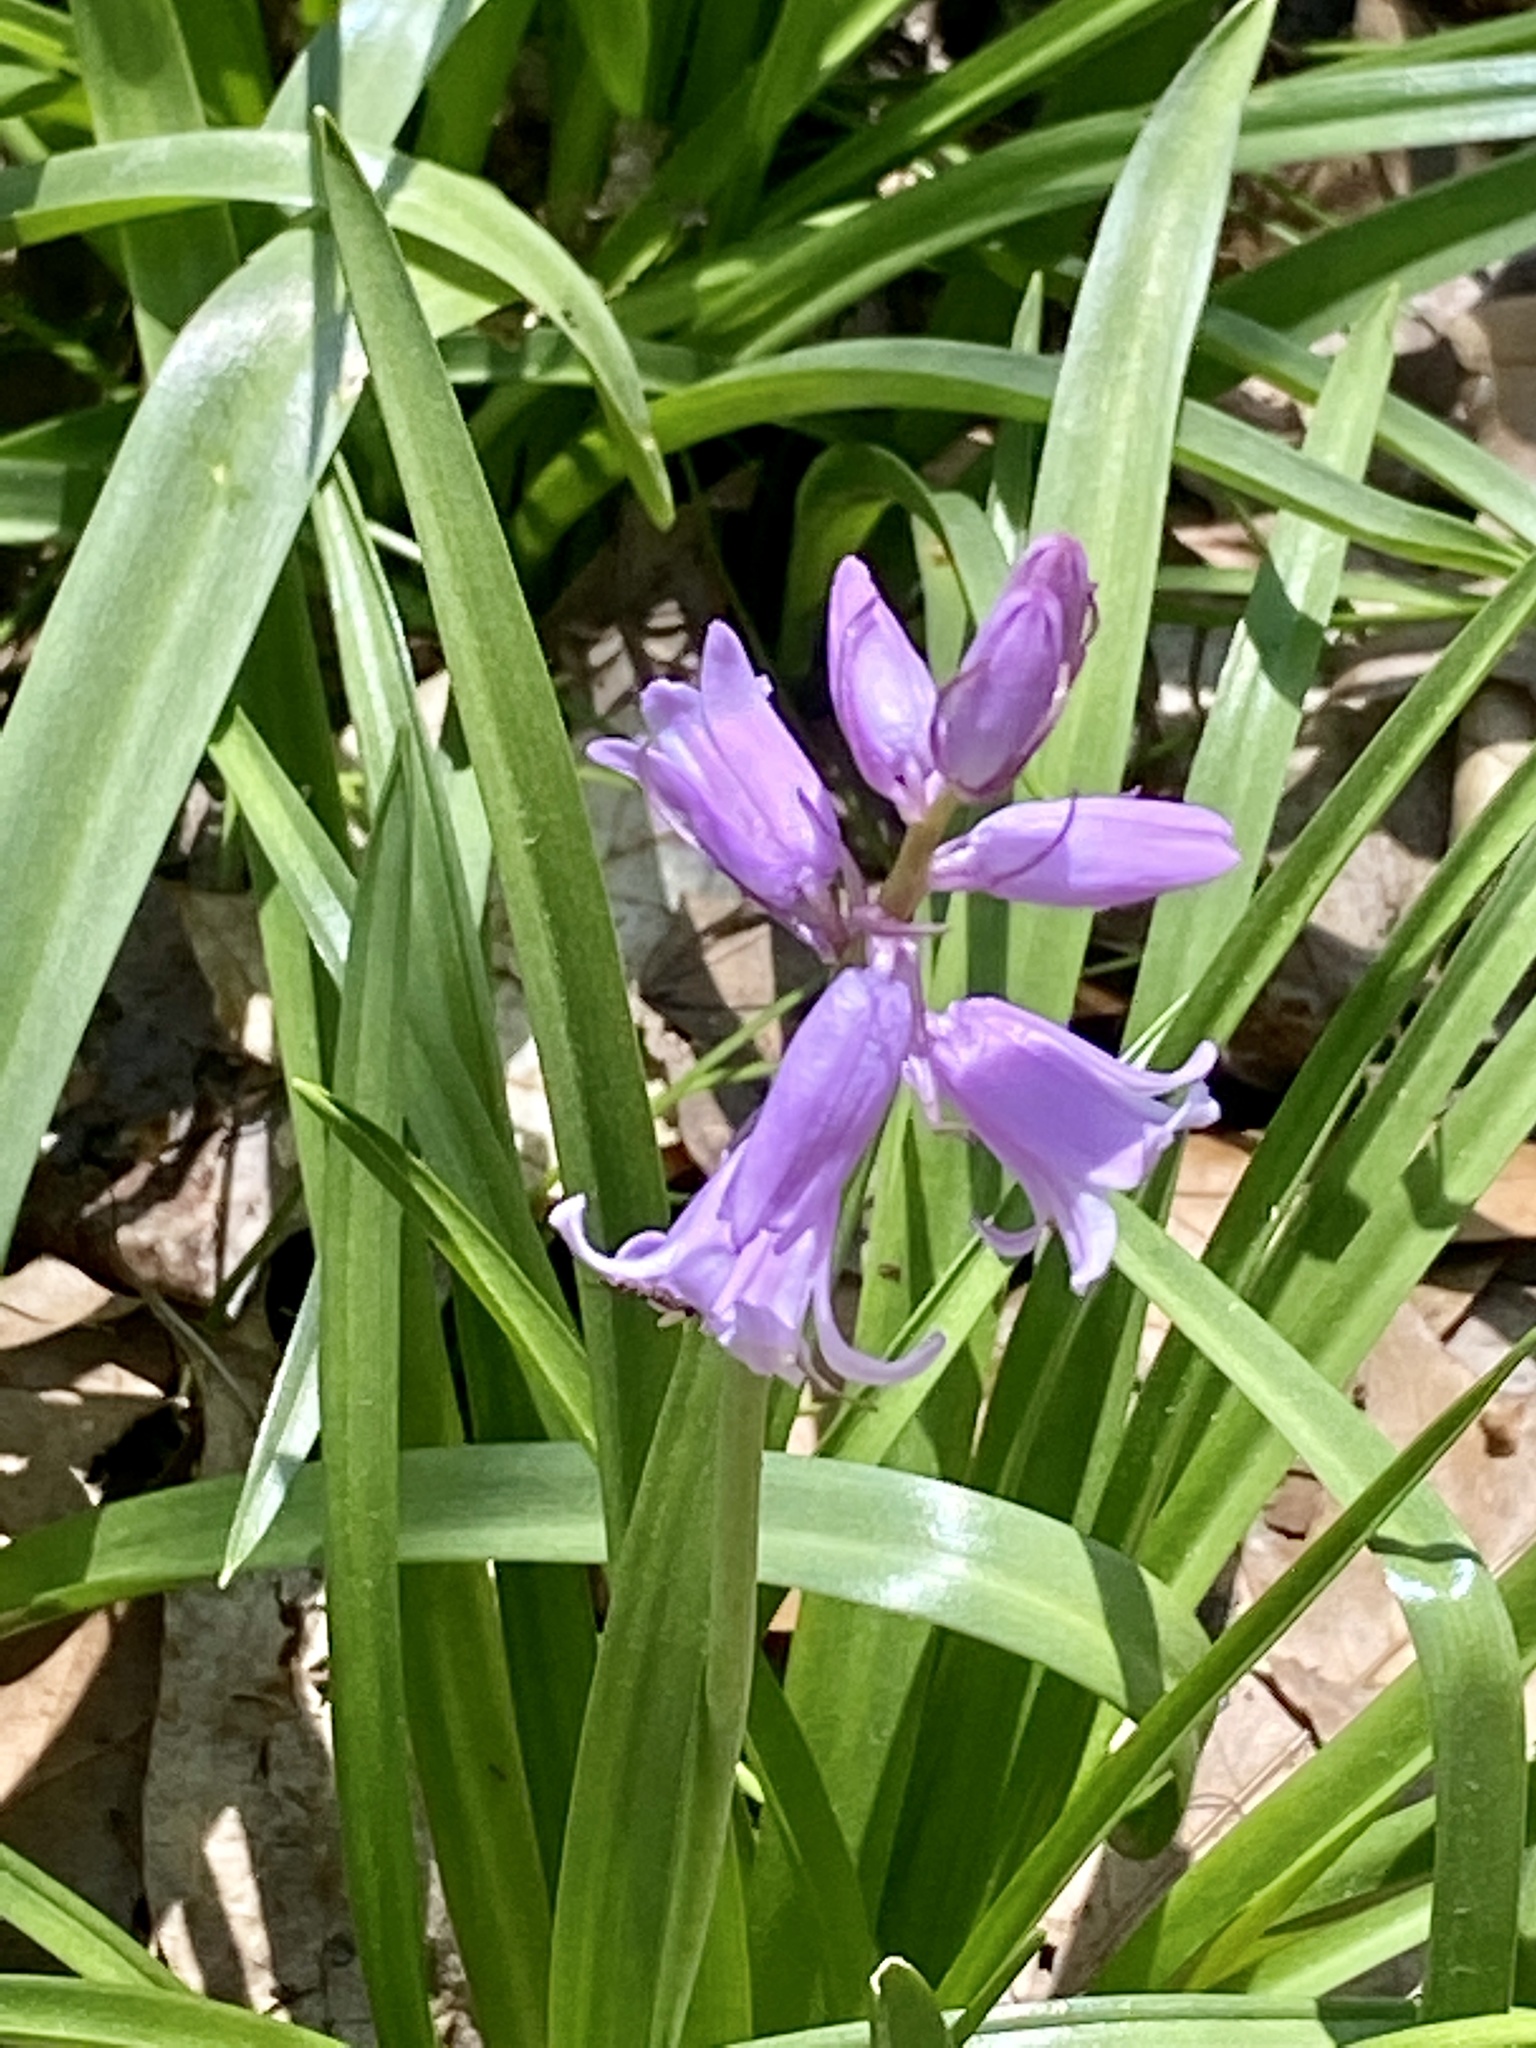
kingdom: Plantae
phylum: Tracheophyta
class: Liliopsida
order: Asparagales
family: Asparagaceae
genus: Hyacinthoides
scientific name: Hyacinthoides hispanica
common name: Spanish bluebell
